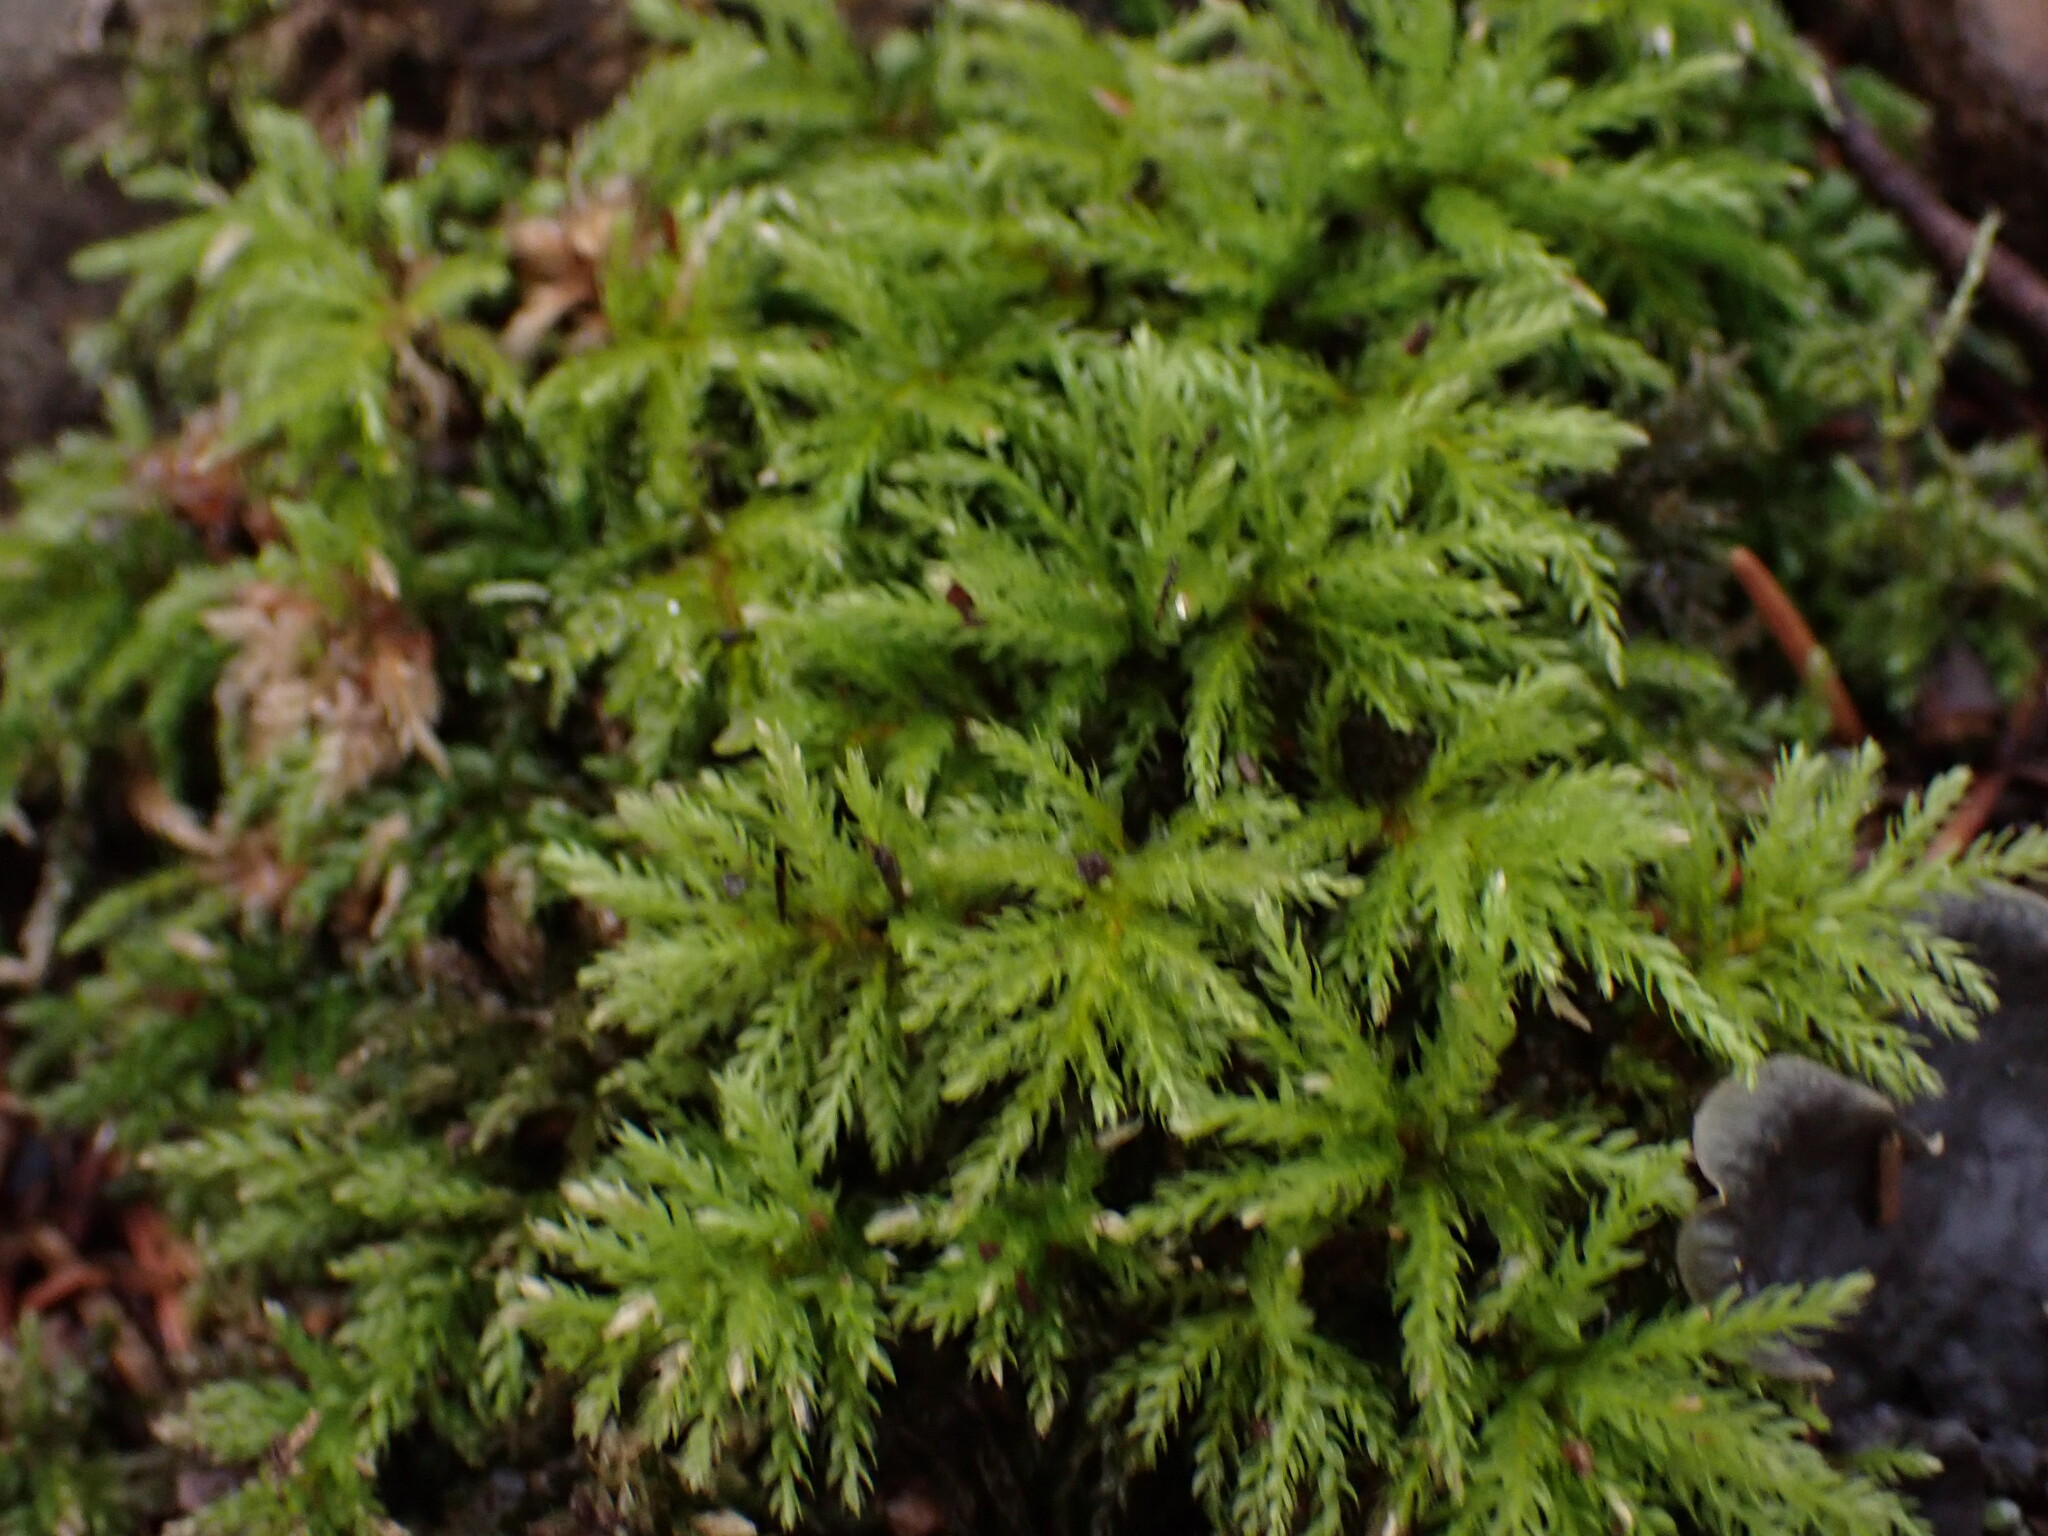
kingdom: Plantae
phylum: Bryophyta
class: Bryopsida
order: Bryales
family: Mniaceae
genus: Leucolepis
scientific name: Leucolepis acanthoneura
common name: Leucolepis umbrella moss
